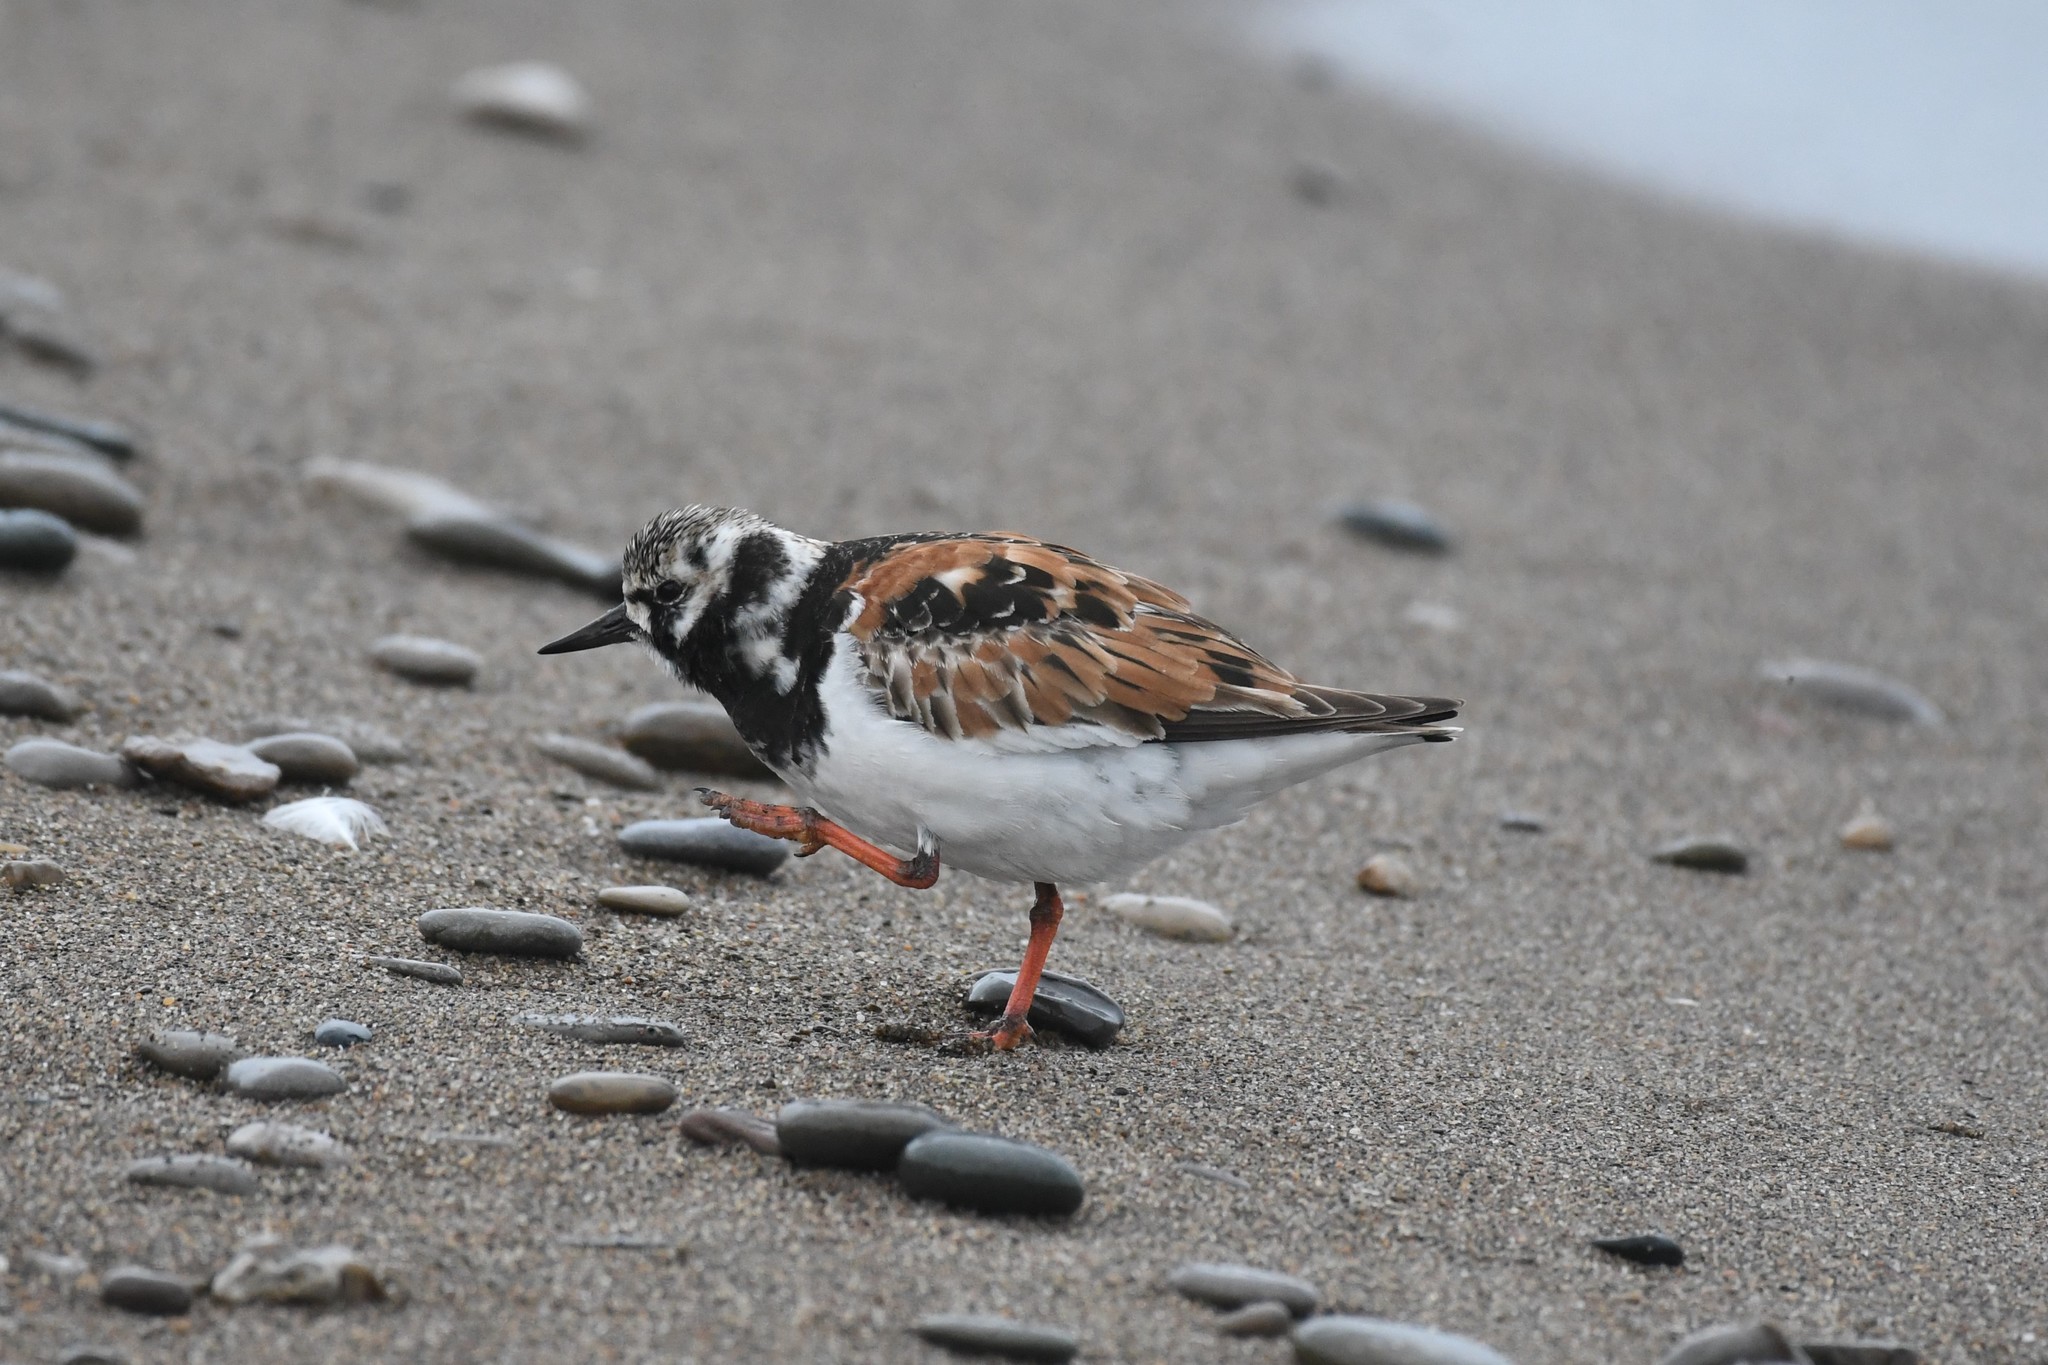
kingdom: Animalia
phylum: Chordata
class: Aves
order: Charadriiformes
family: Scolopacidae
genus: Arenaria
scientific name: Arenaria interpres
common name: Ruddy turnstone
